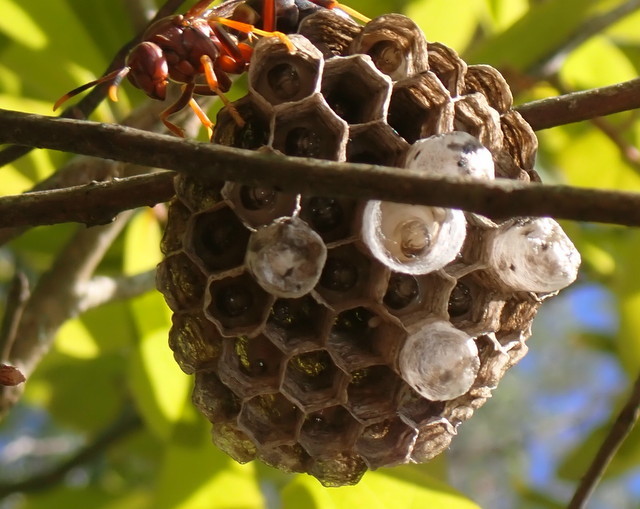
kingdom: Animalia
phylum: Arthropoda
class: Insecta
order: Hymenoptera
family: Eumenidae
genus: Polistes
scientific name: Polistes annularis
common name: Ringed paper wasp
